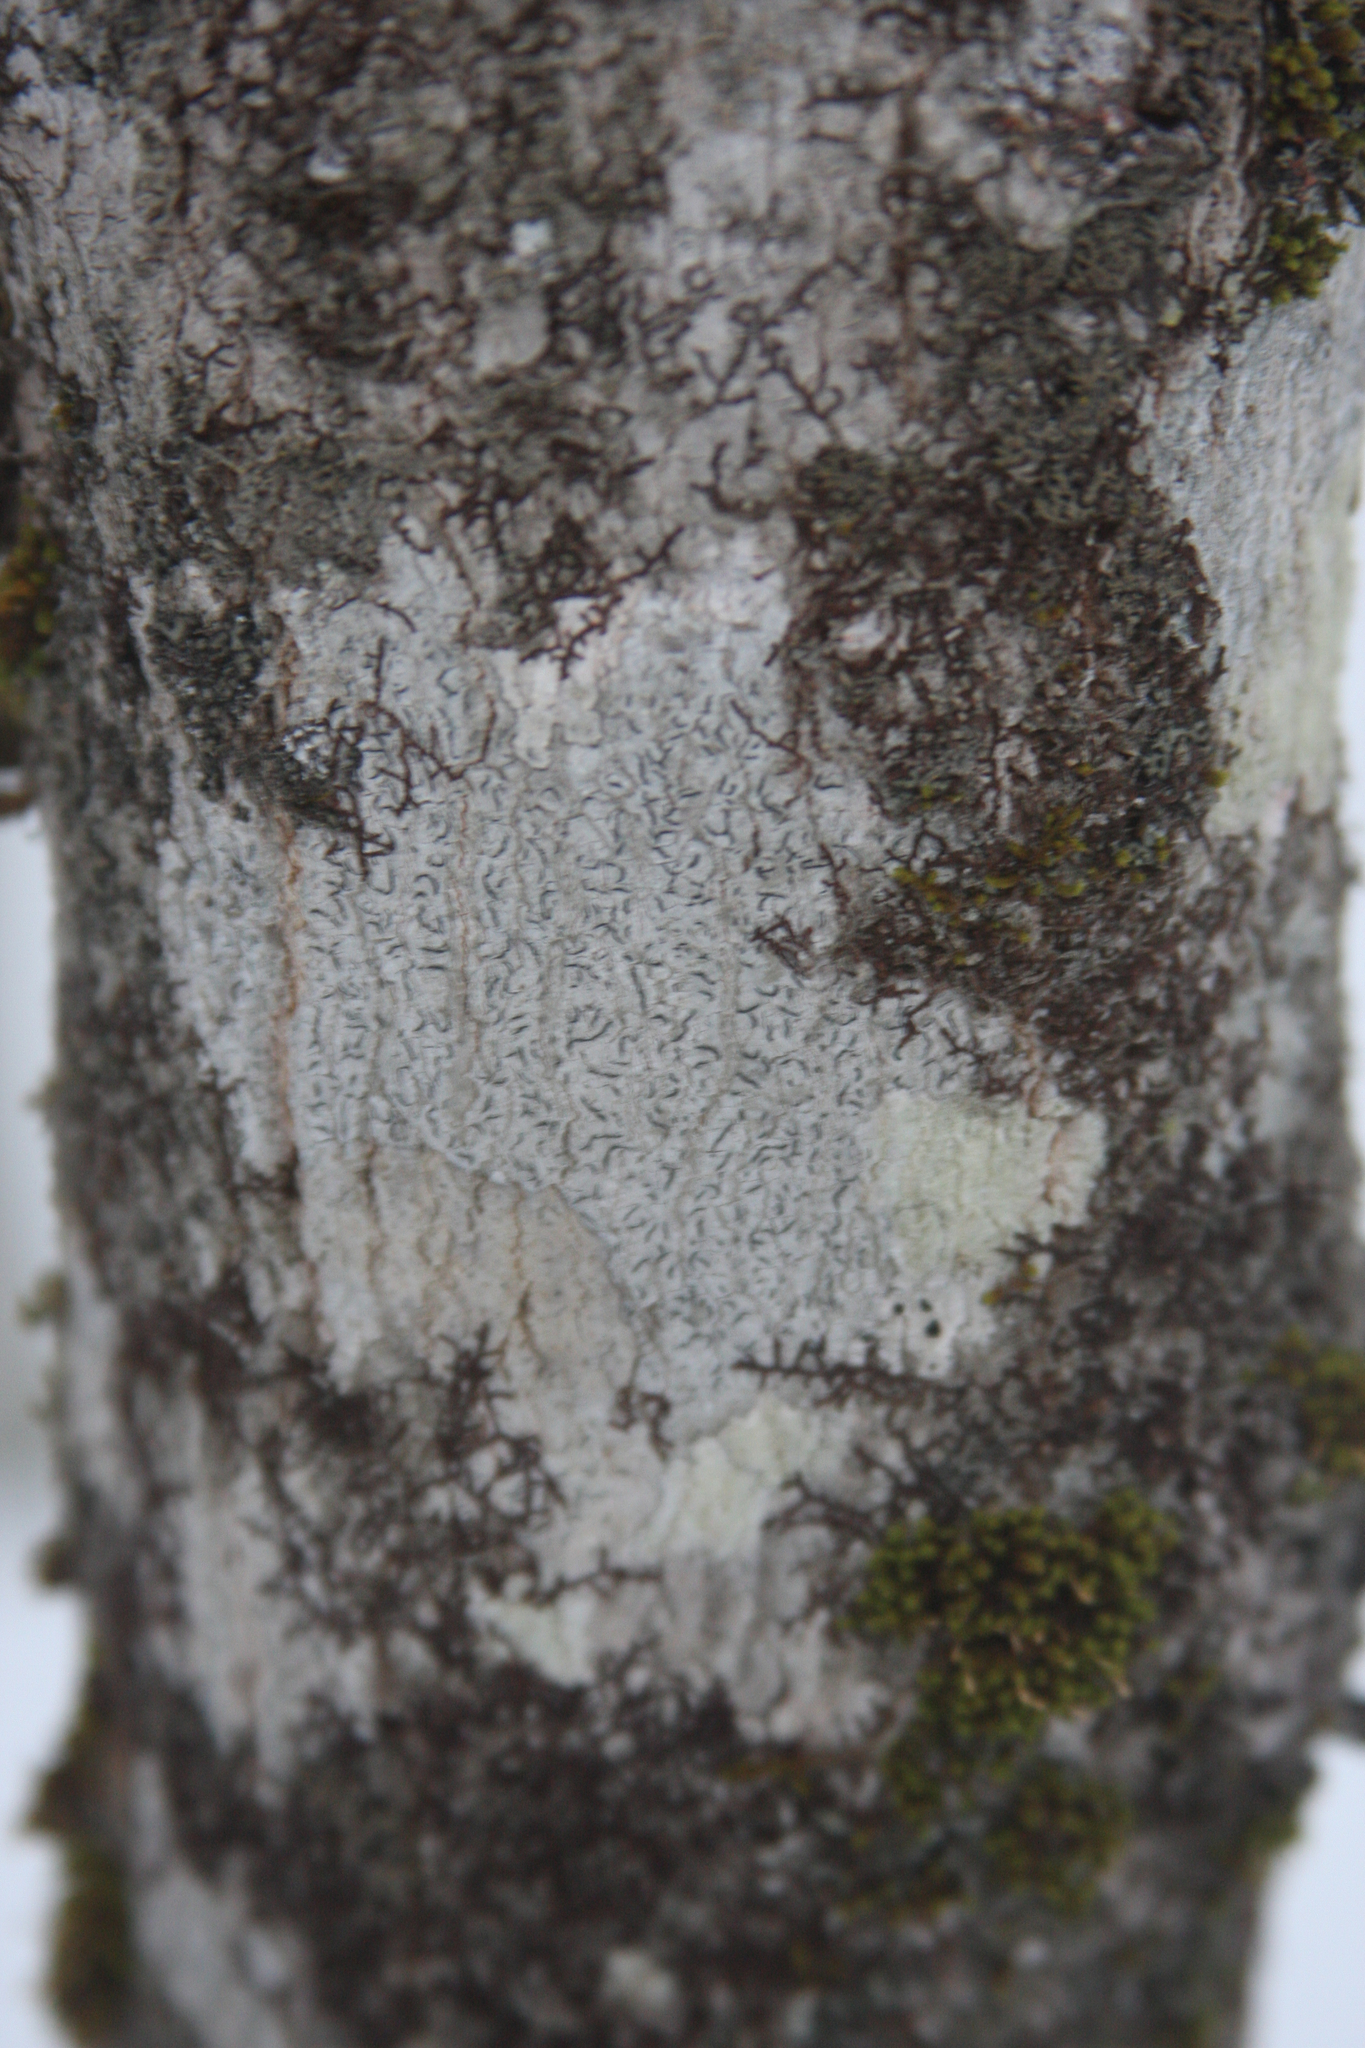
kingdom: Fungi
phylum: Ascomycota
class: Lecanoromycetes
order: Ostropales
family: Graphidaceae
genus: Graphis
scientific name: Graphis scripta
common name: Script lichen
